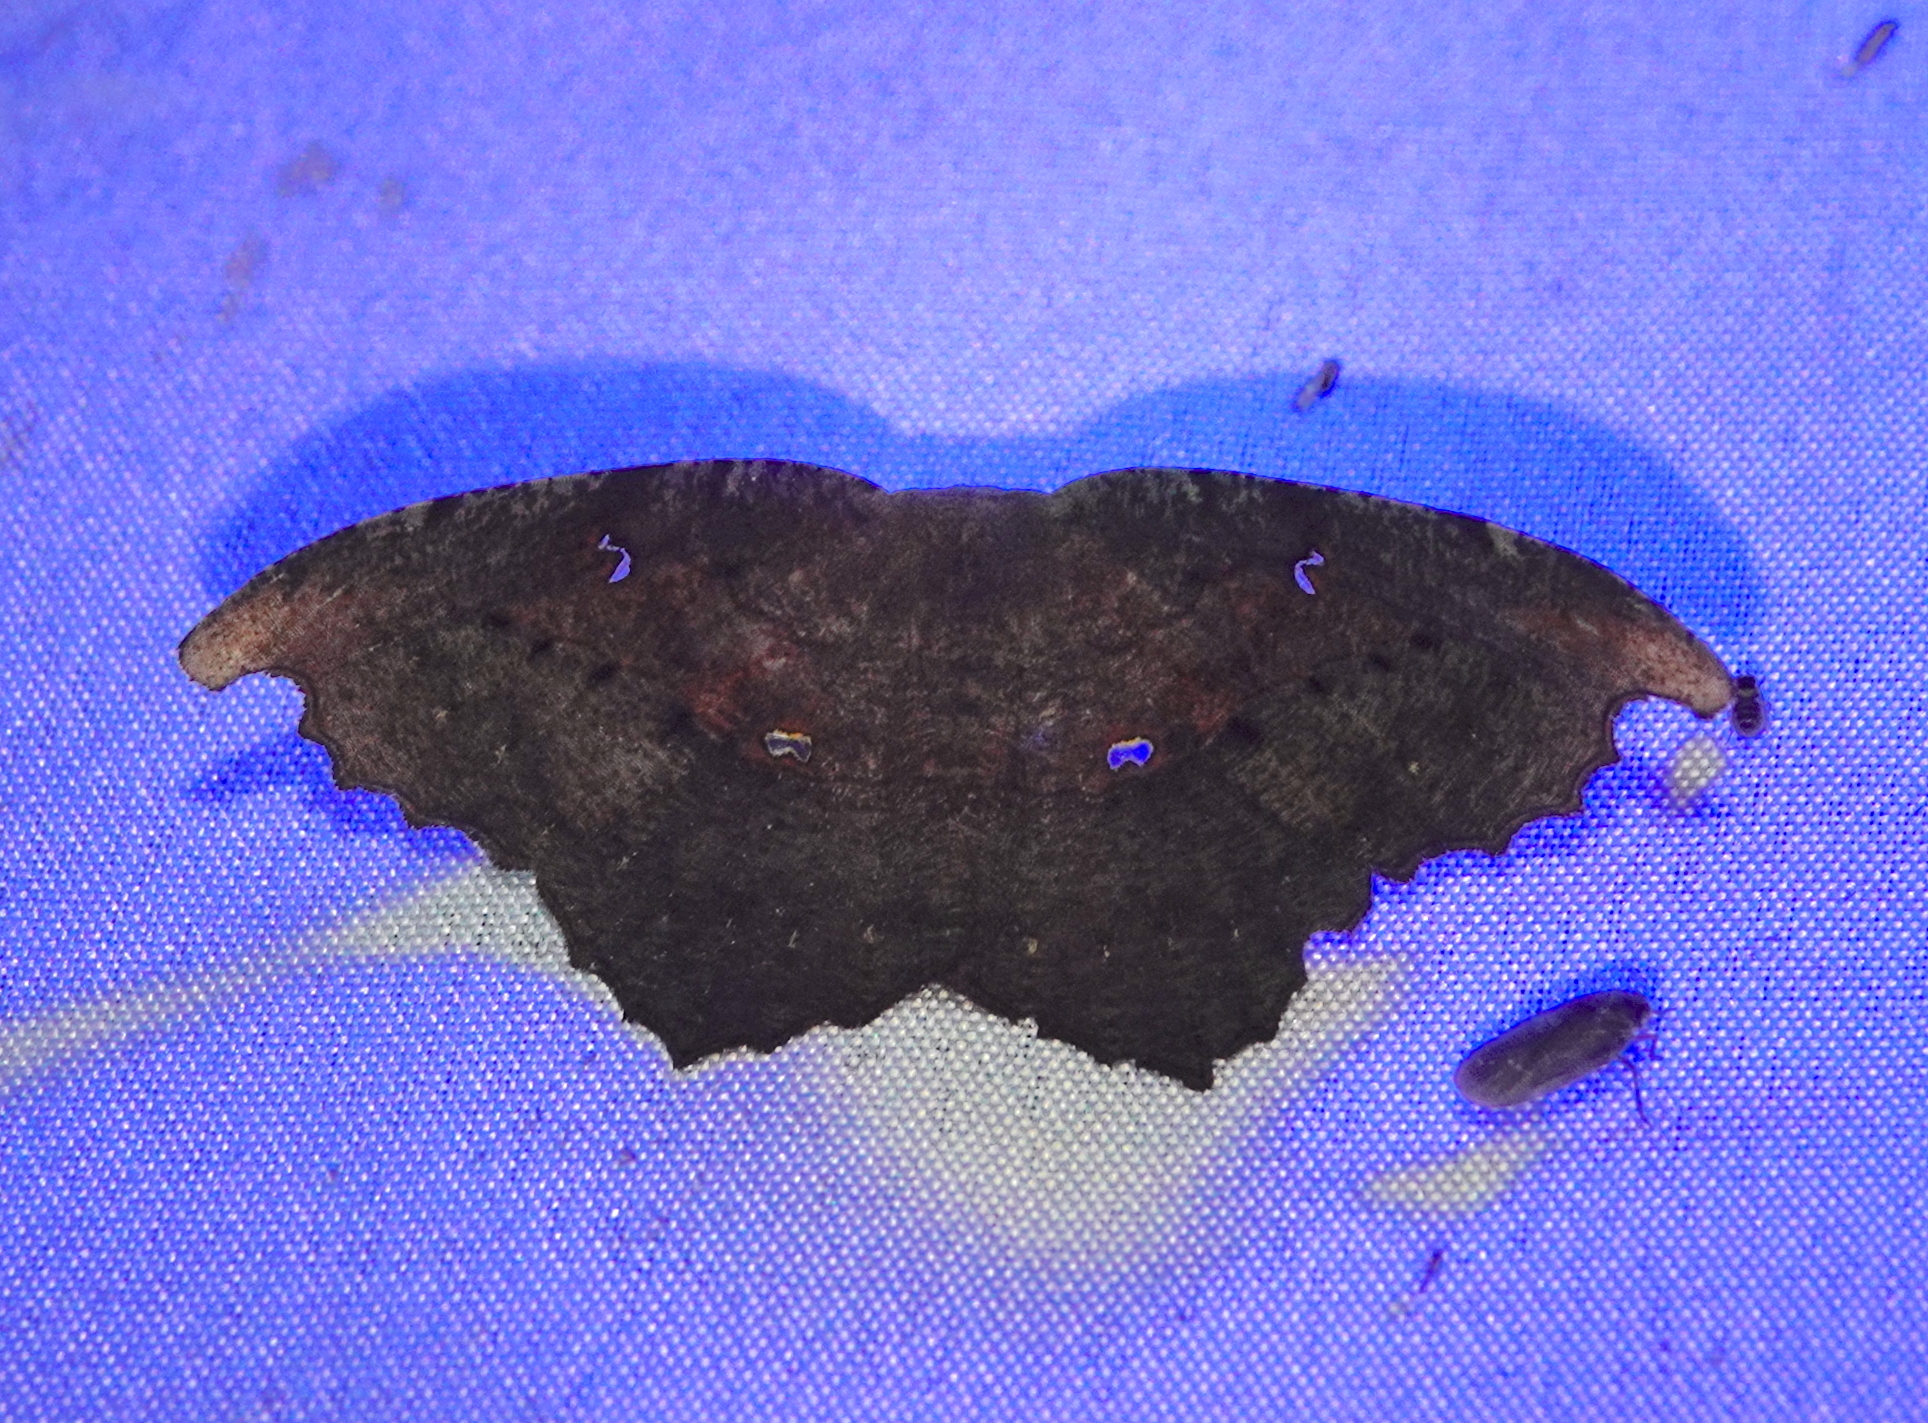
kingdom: Animalia
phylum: Arthropoda
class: Insecta
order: Lepidoptera
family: Geometridae
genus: Oxydia
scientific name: Oxydia optima
